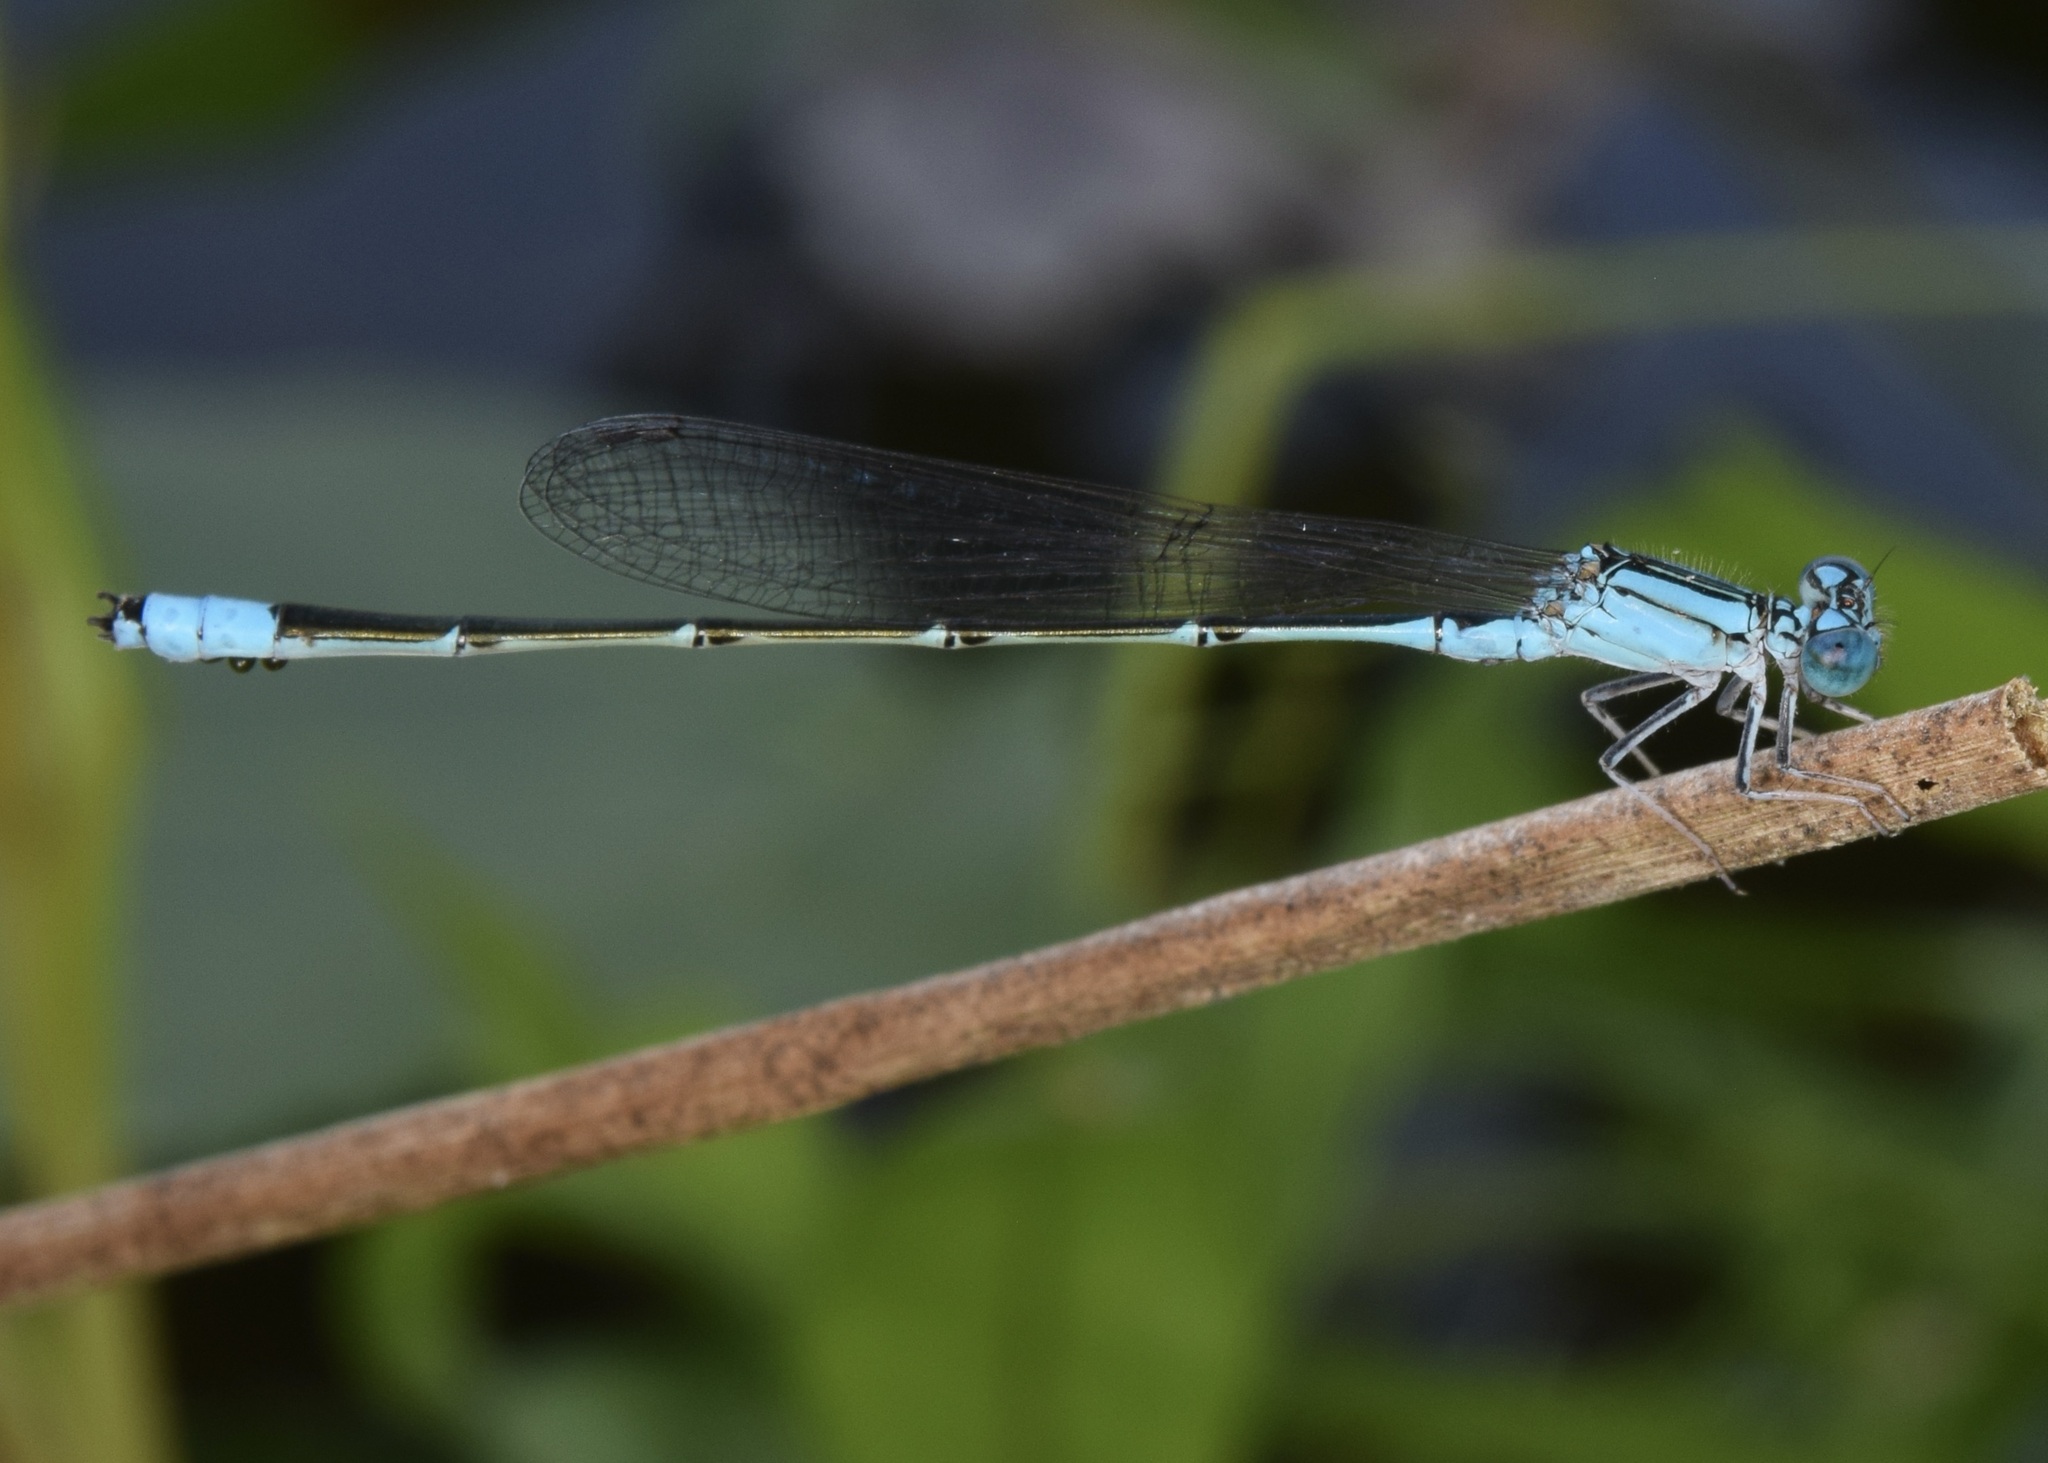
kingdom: Animalia
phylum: Arthropoda
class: Insecta
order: Odonata
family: Coenagrionidae
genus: Enallagma
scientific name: Enallagma traviatum
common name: Slender bluet
